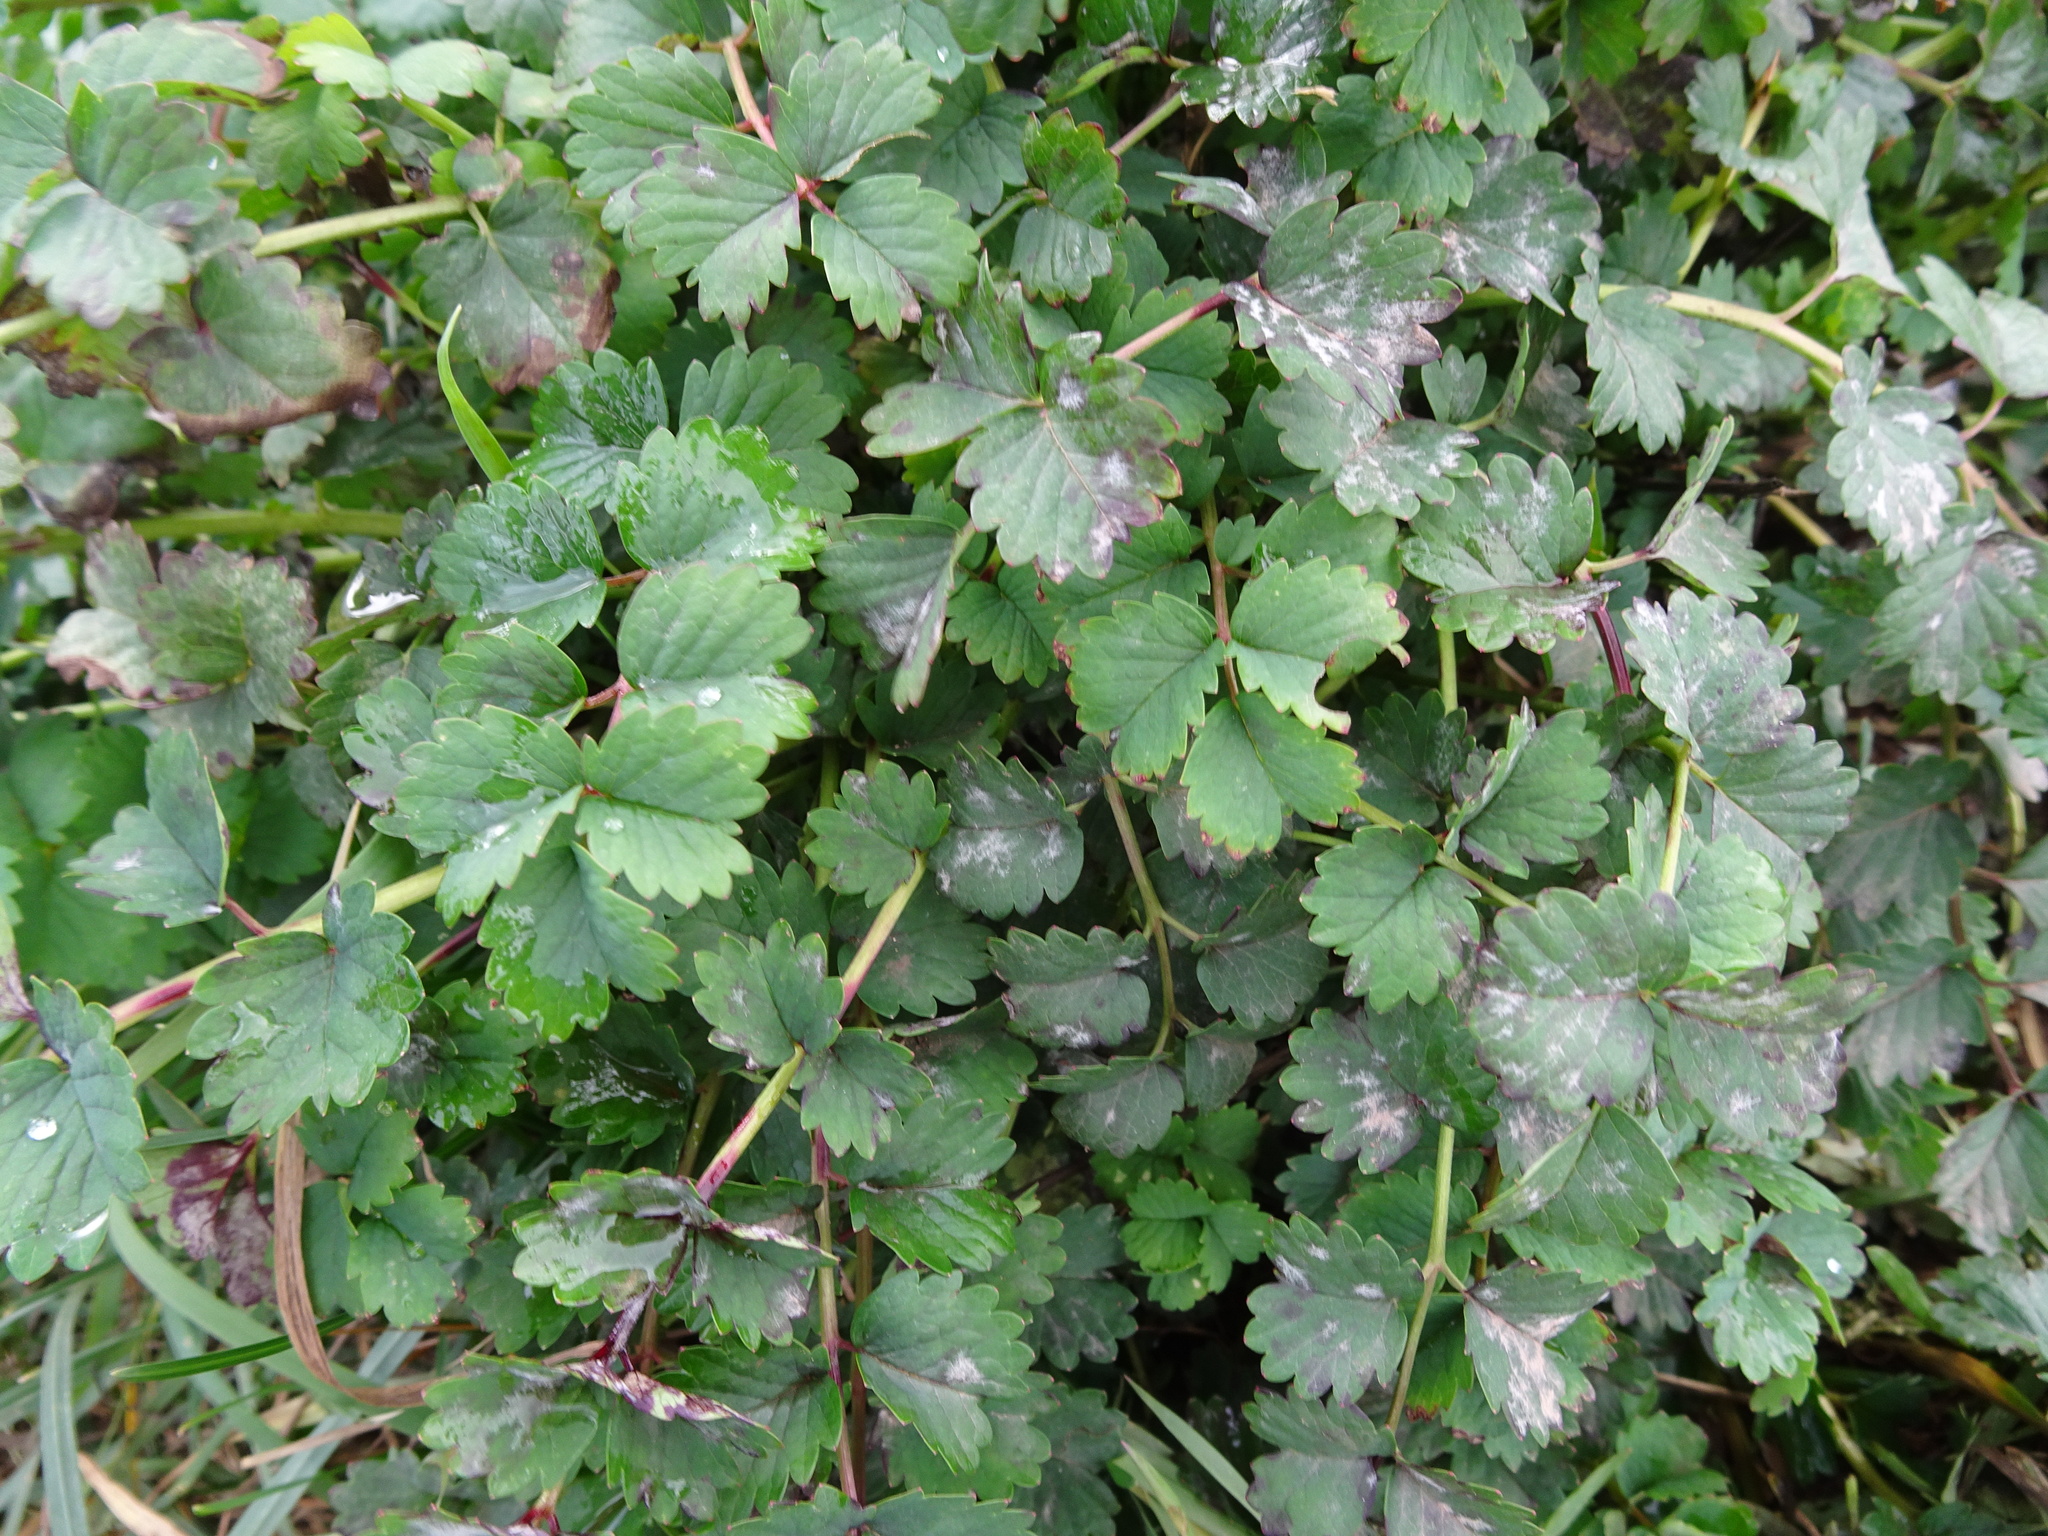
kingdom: Plantae
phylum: Tracheophyta
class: Magnoliopsida
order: Rosales
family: Rosaceae
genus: Poterium
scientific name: Poterium sanguisorba
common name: Salad burnet
